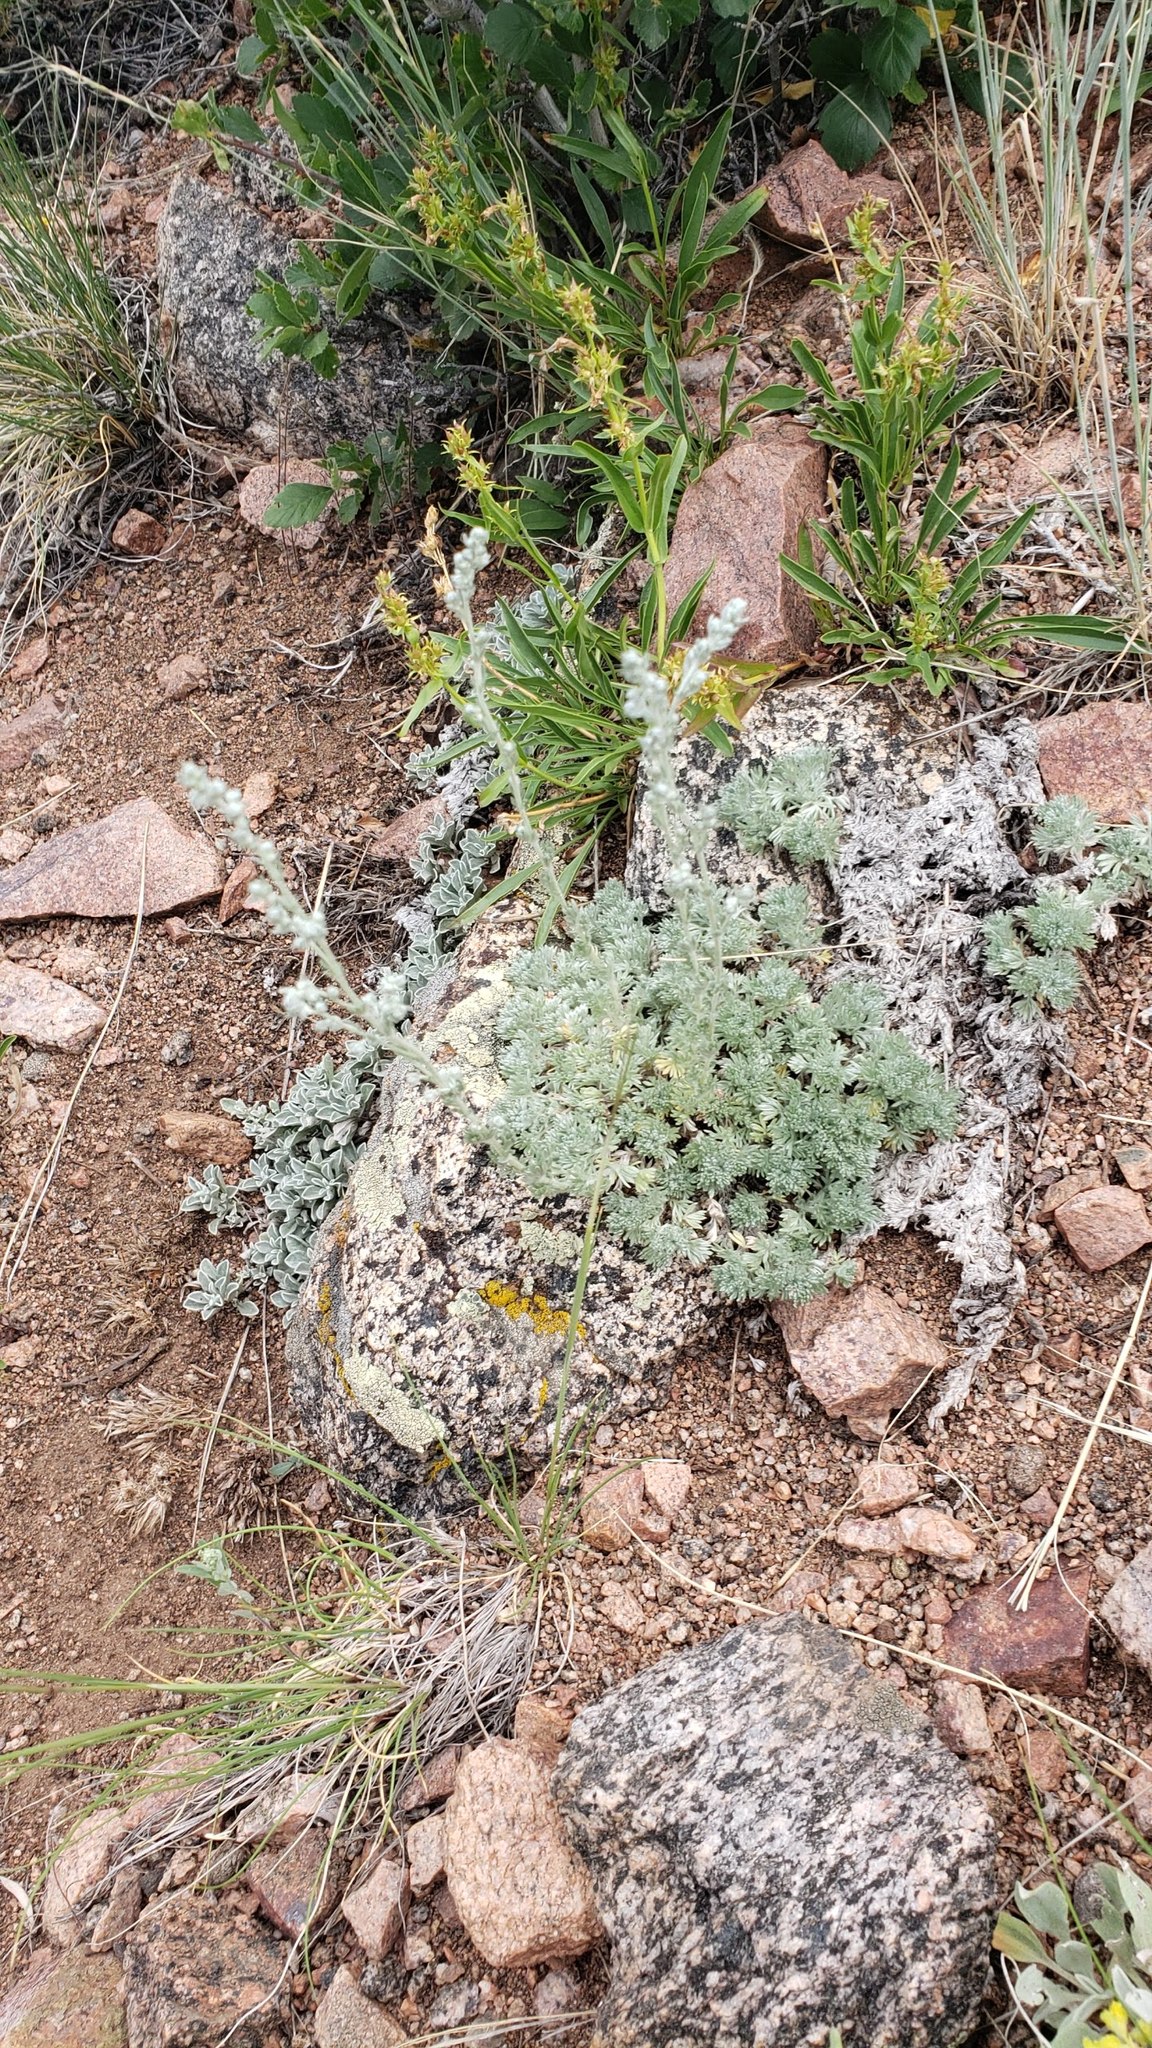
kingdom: Plantae
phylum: Tracheophyta
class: Magnoliopsida
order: Asterales
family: Asteraceae
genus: Artemisia
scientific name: Artemisia frigida
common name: Prairie sagewort
